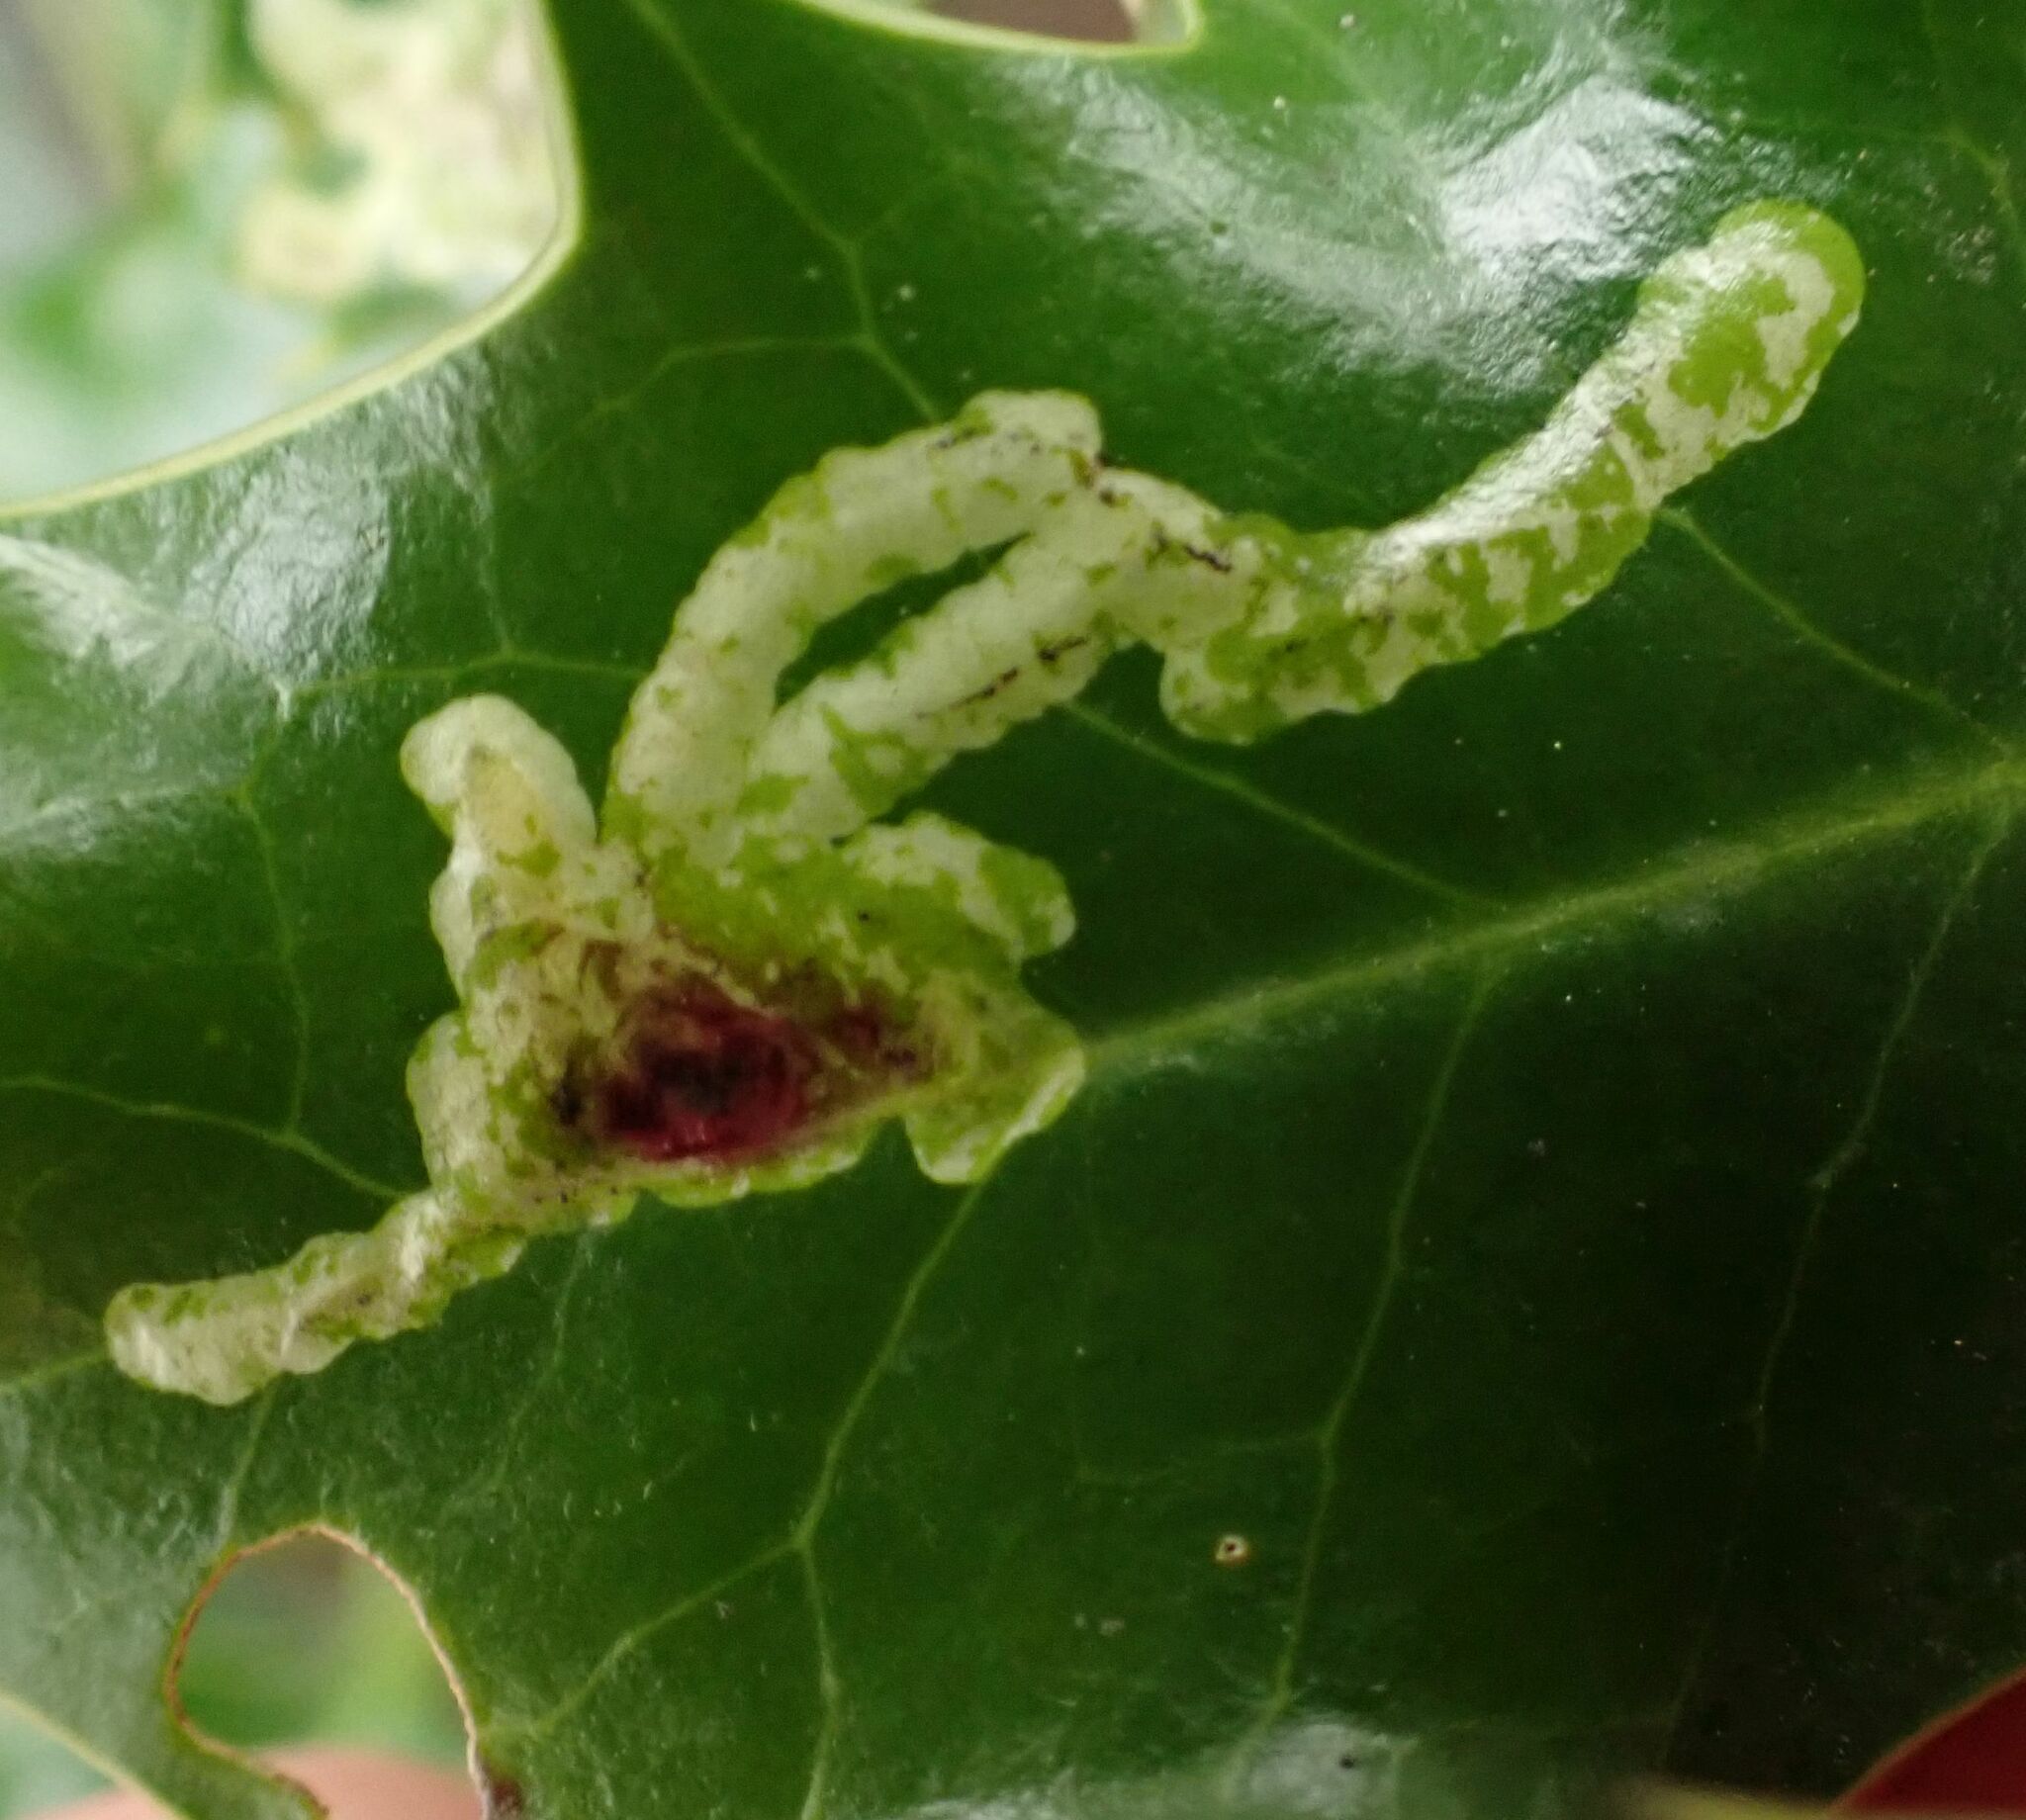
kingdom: Animalia
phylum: Arthropoda
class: Insecta
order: Diptera
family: Agromyzidae
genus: Phytomyza
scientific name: Phytomyza ilicis
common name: Holly leafminer
